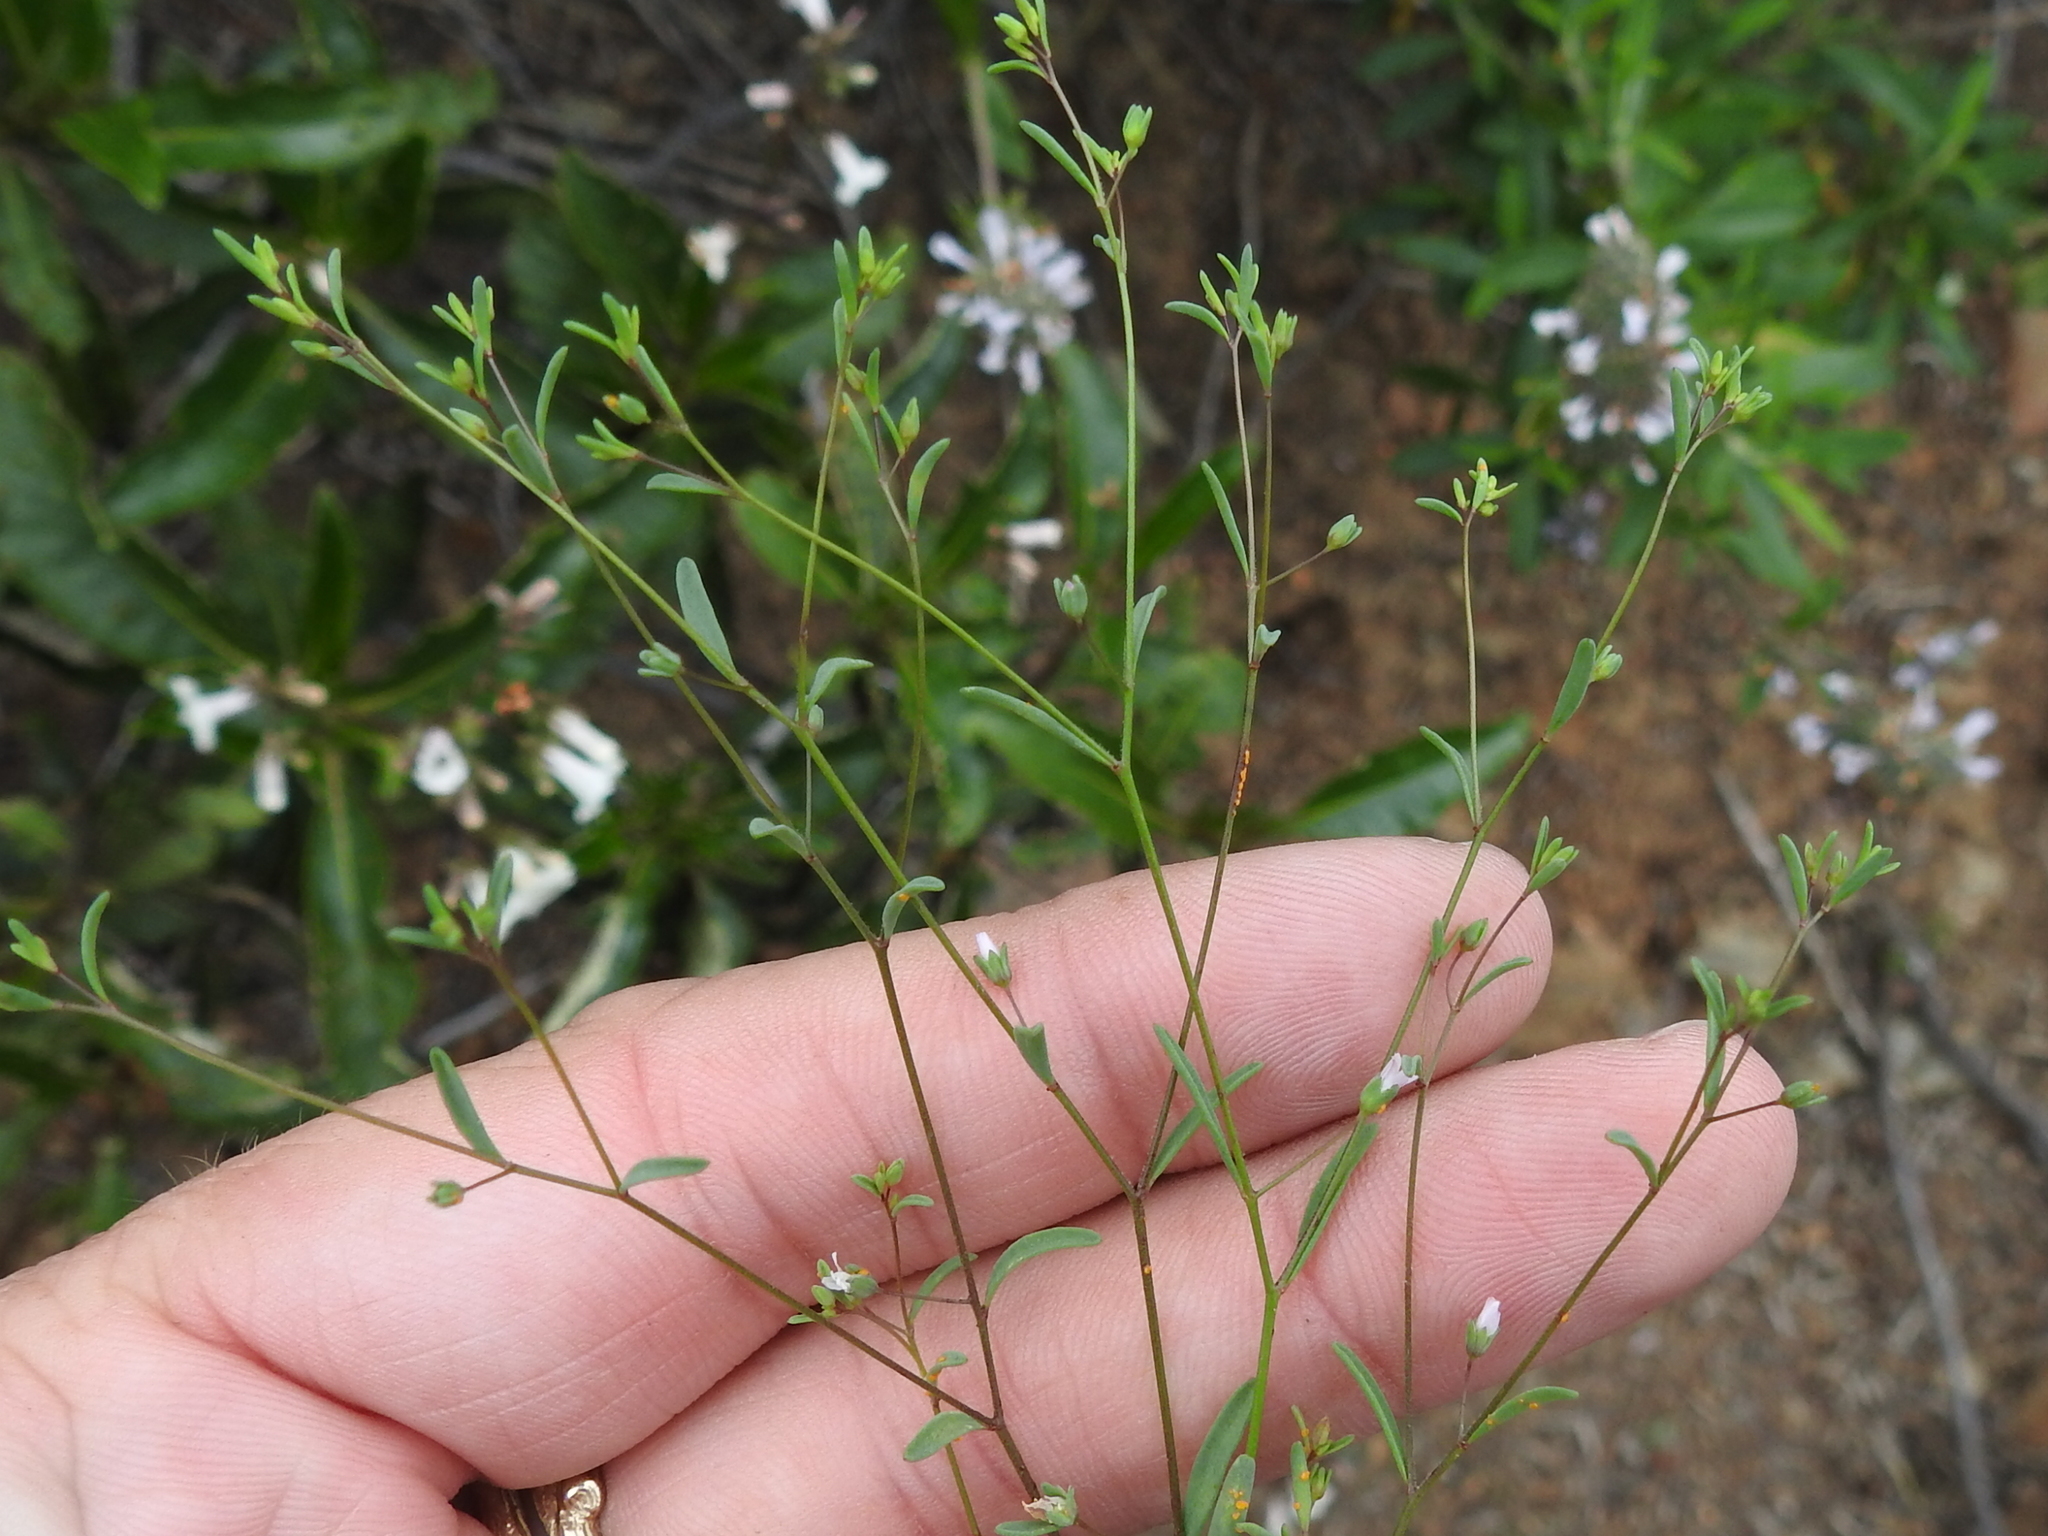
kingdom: Plantae
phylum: Tracheophyta
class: Magnoliopsida
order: Malpighiales
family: Linaceae
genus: Hesperolinon
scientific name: Hesperolinon micranthum
